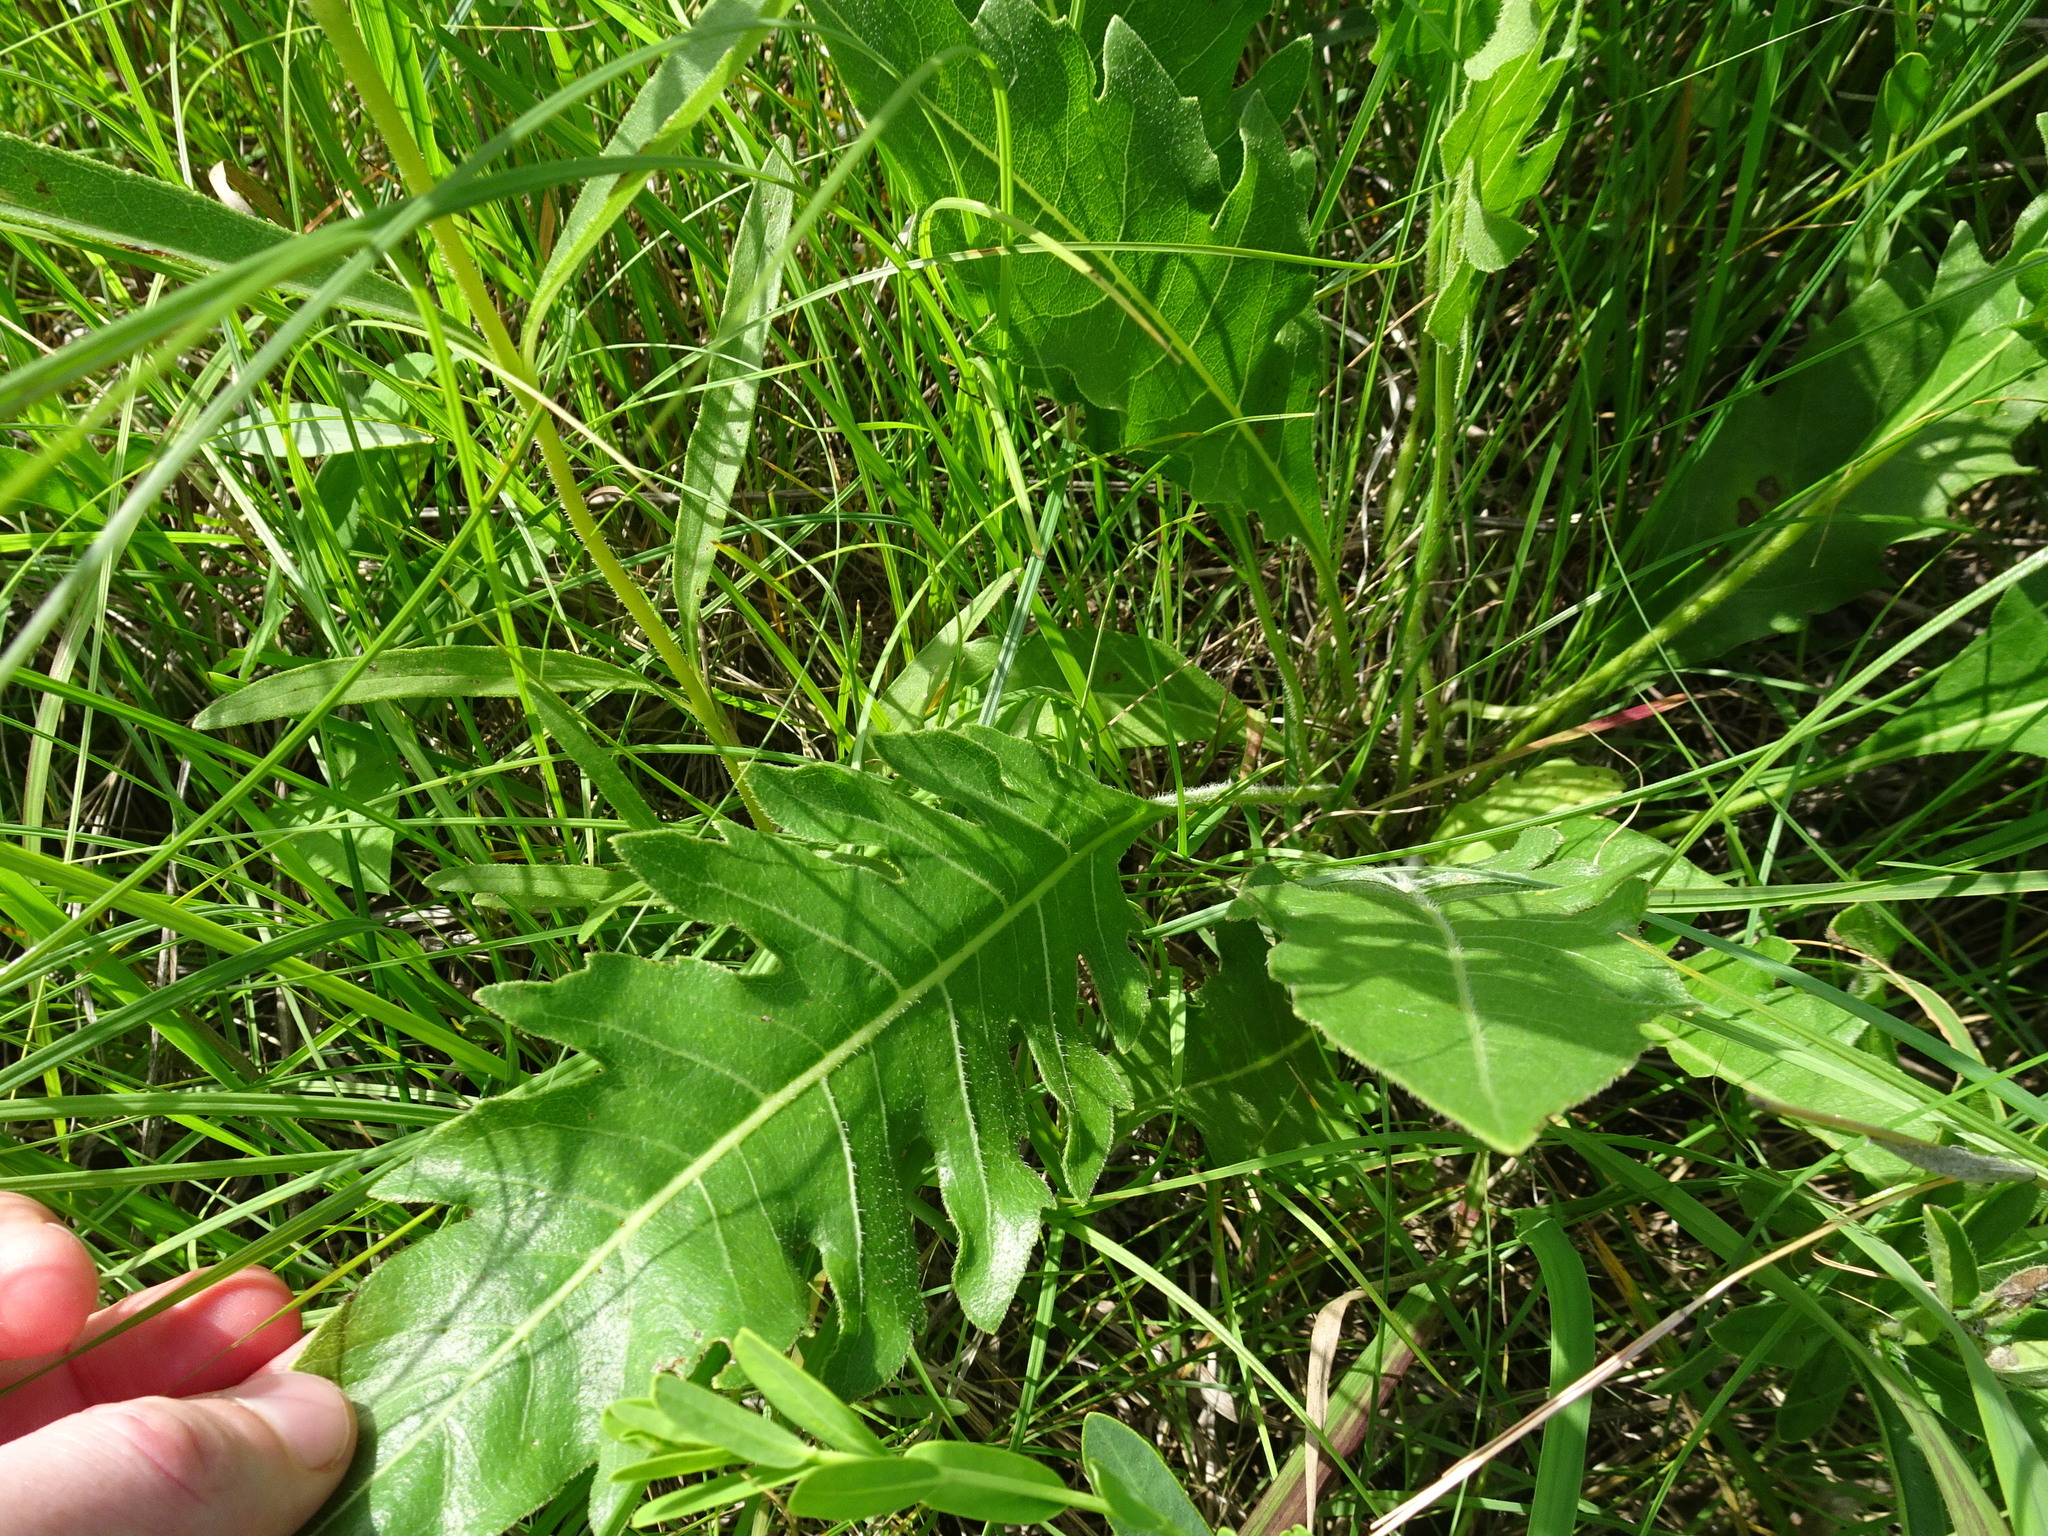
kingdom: Plantae
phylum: Tracheophyta
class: Magnoliopsida
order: Asterales
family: Asteraceae
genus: Silphium
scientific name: Silphium laciniatum
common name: Polarplant
